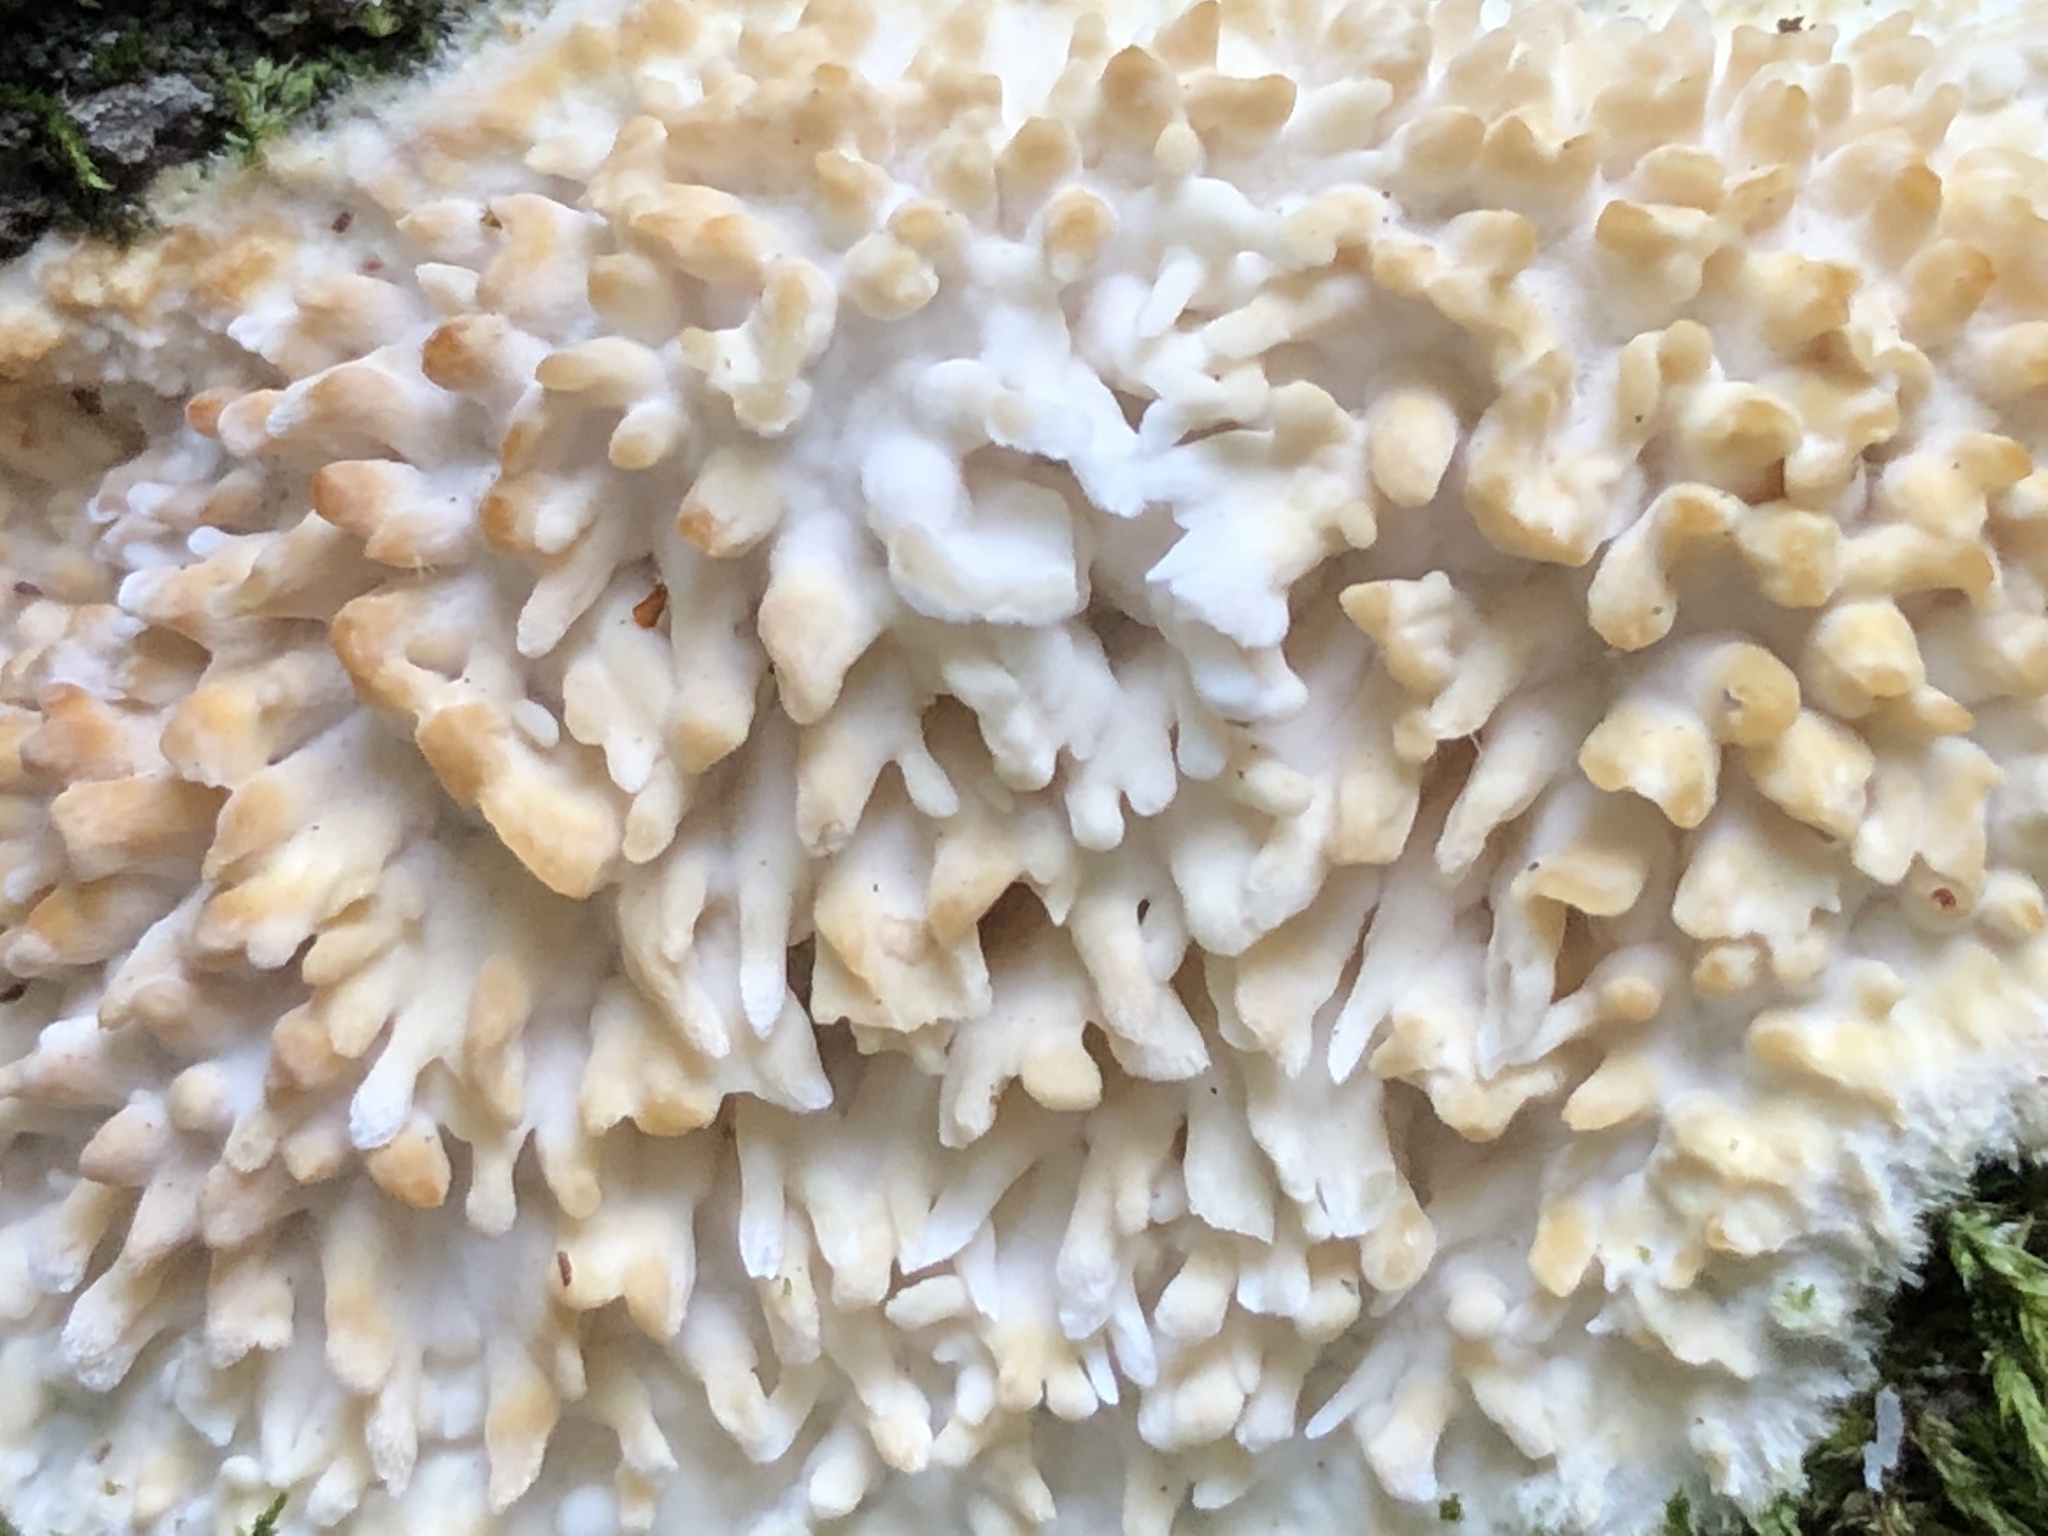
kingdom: Fungi
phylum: Basidiomycota
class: Agaricomycetes
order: Agaricales
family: Radulomycetaceae
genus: Radulomyces
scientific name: Radulomyces copelandii
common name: Asian beauty
